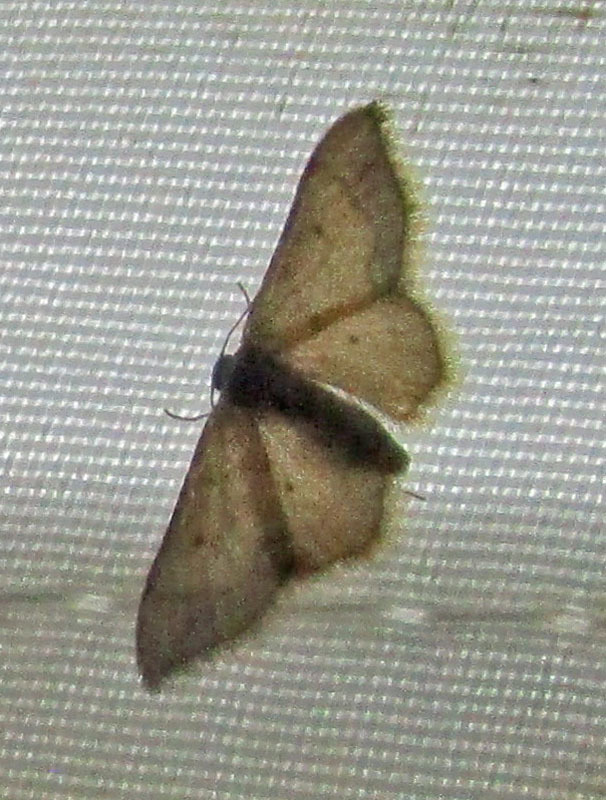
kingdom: Animalia
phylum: Arthropoda
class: Insecta
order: Lepidoptera
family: Geometridae
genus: Idaea
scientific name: Idaea
